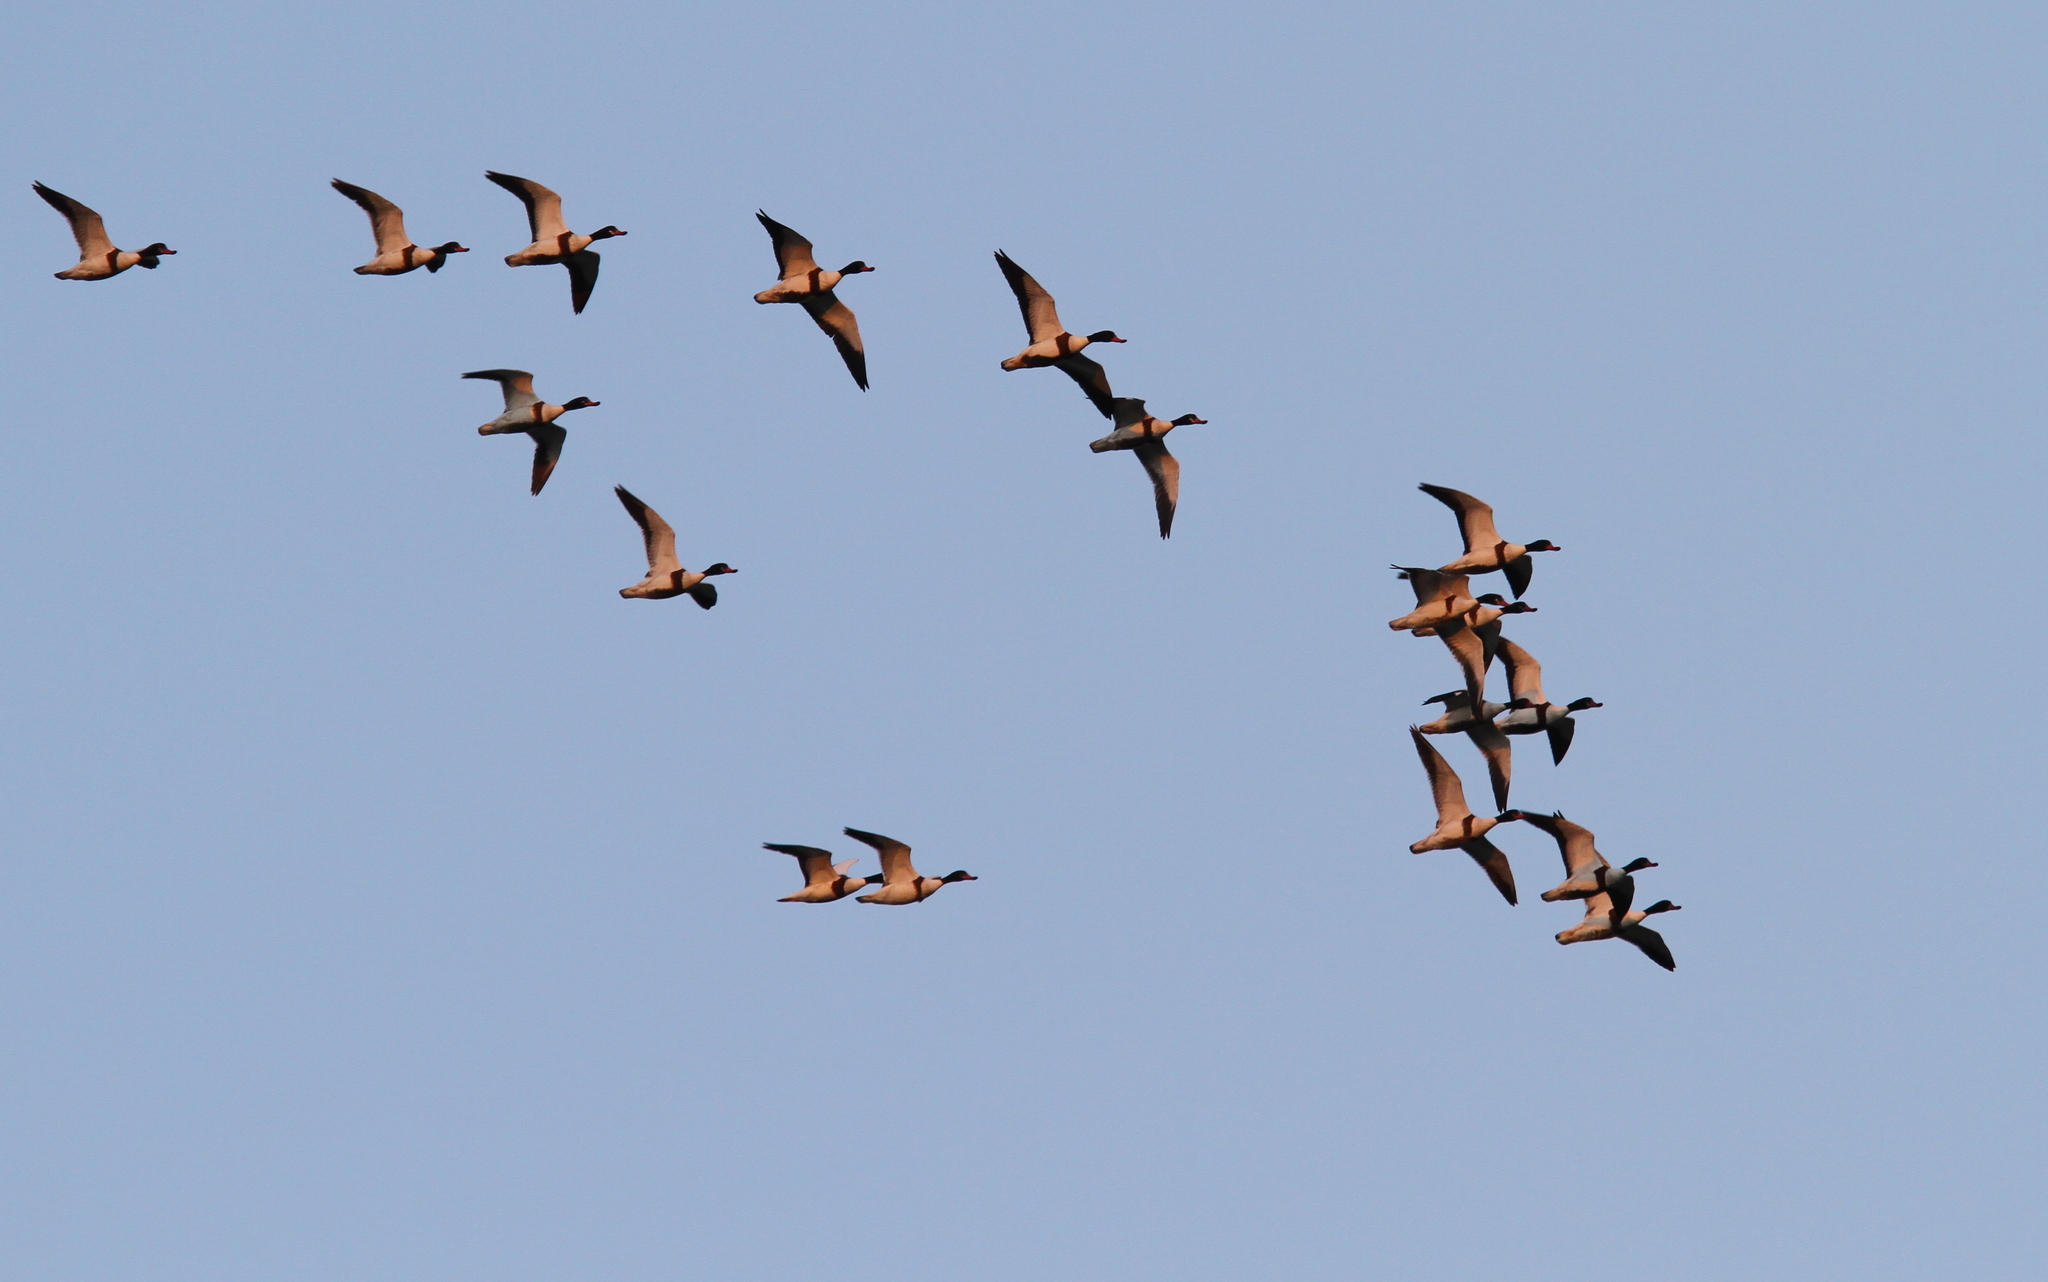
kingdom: Animalia
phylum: Chordata
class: Aves
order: Anseriformes
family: Anatidae
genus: Tadorna
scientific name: Tadorna tadorna
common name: Common shelduck
